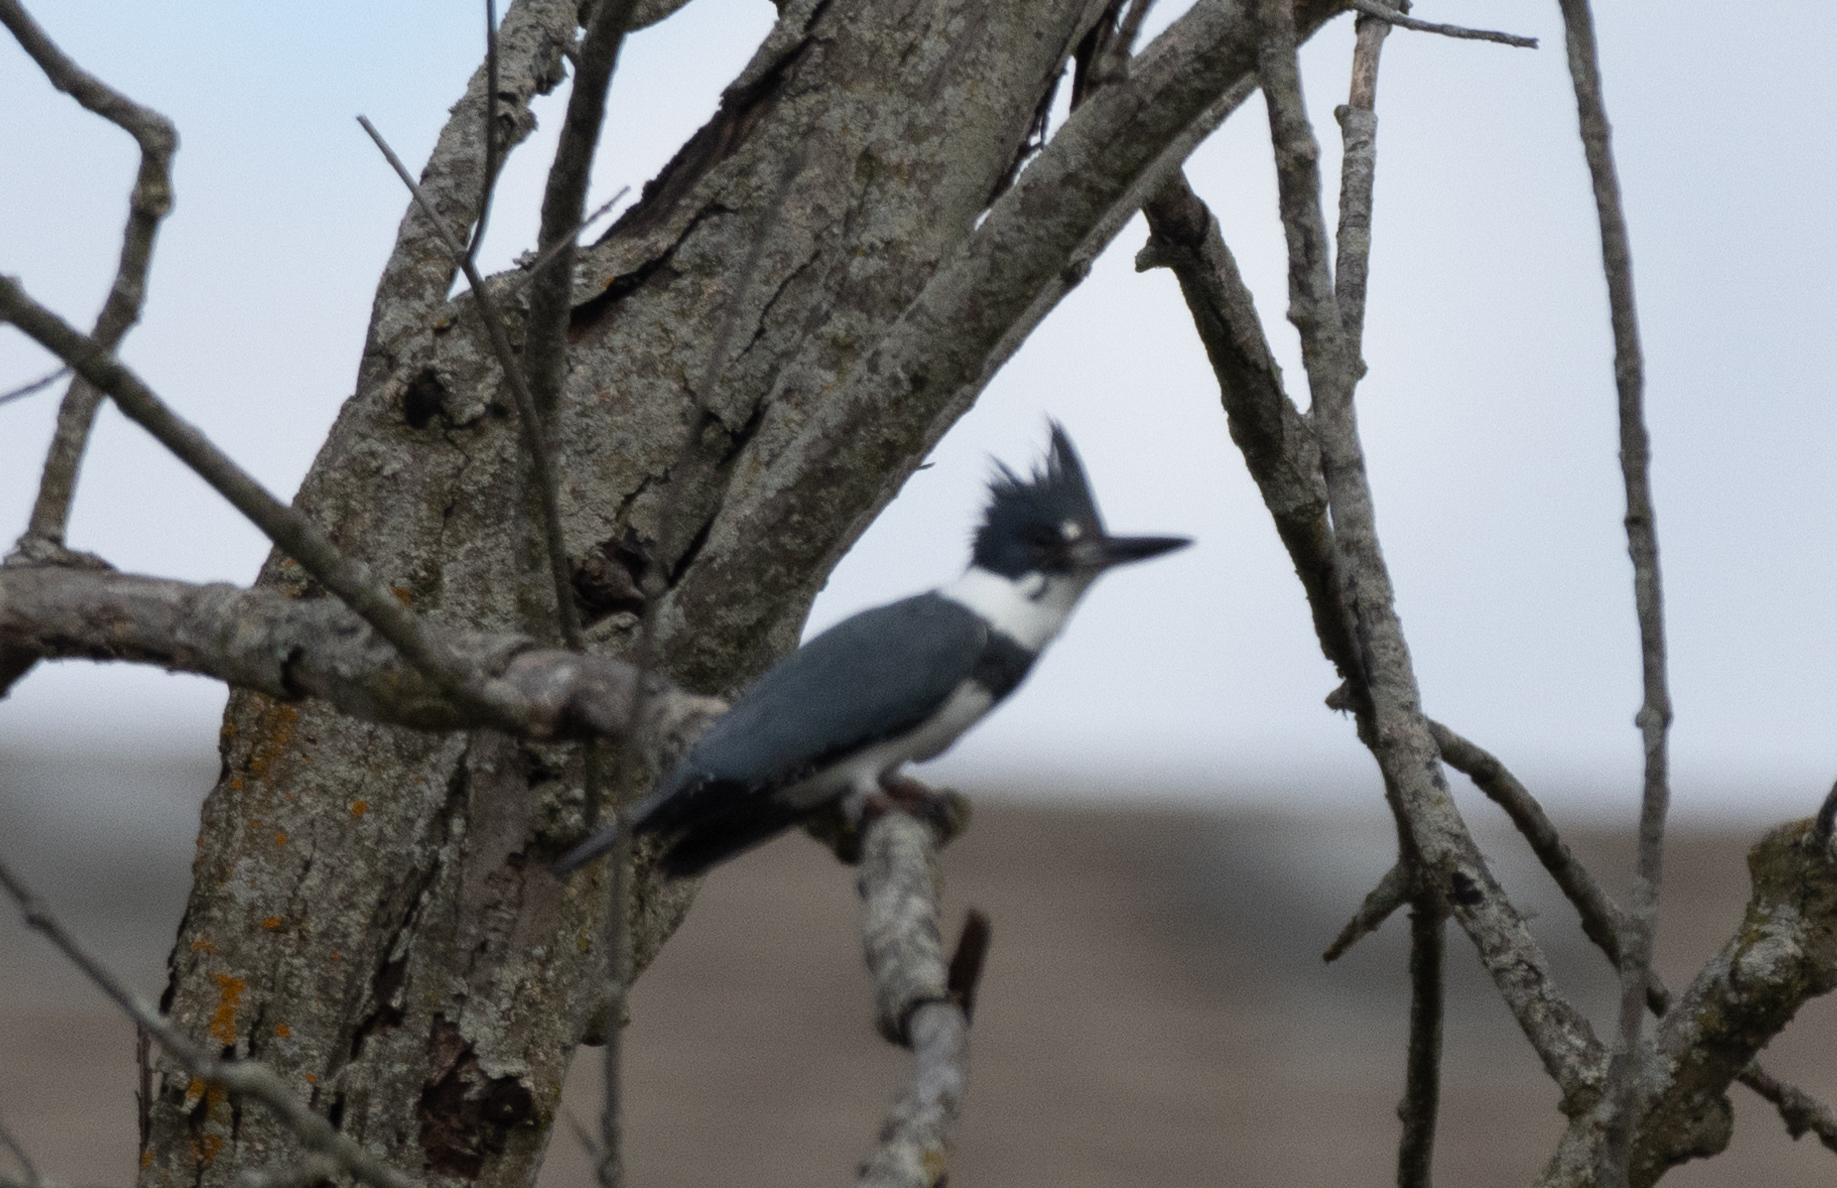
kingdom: Animalia
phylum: Chordata
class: Aves
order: Coraciiformes
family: Alcedinidae
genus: Megaceryle
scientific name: Megaceryle alcyon
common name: Belted kingfisher
